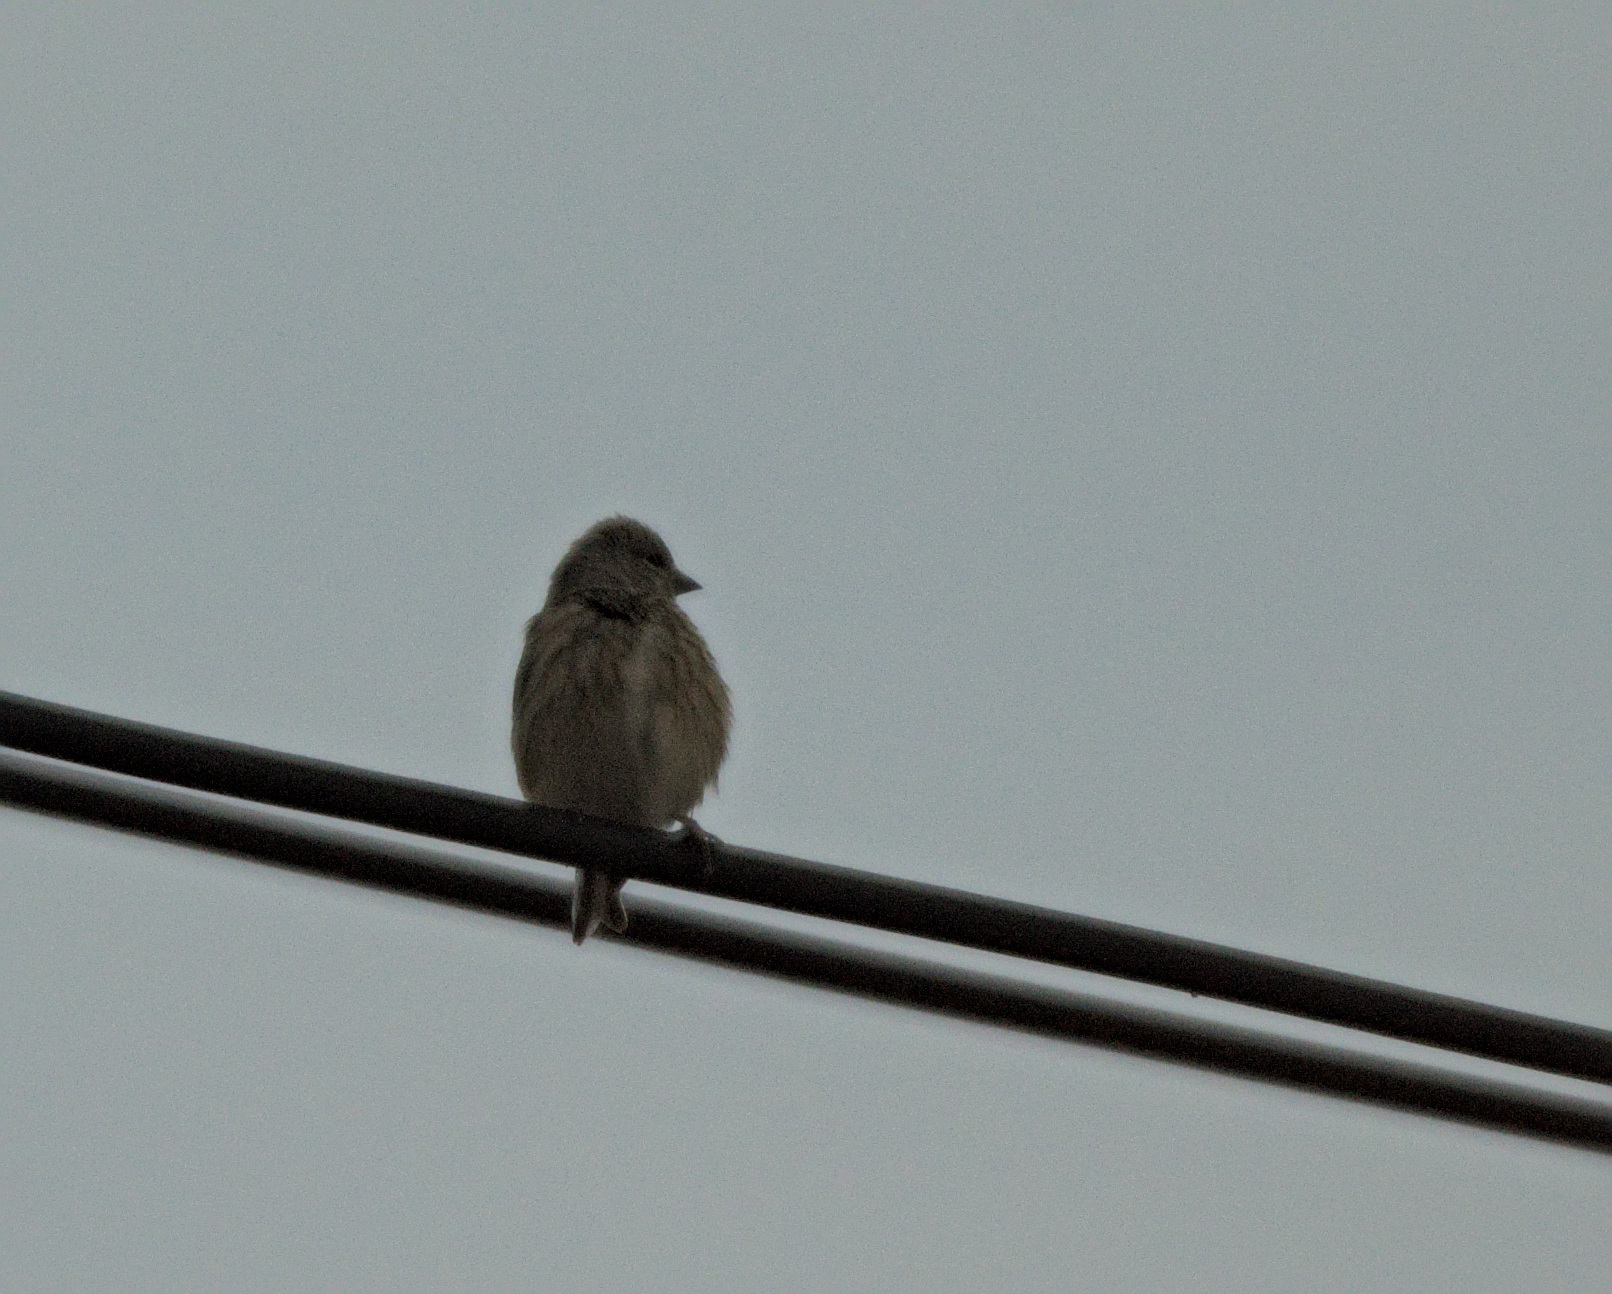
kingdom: Animalia
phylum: Chordata
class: Aves
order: Passeriformes
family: Fringillidae
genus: Linaria
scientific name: Linaria cannabina
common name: Common linnet
